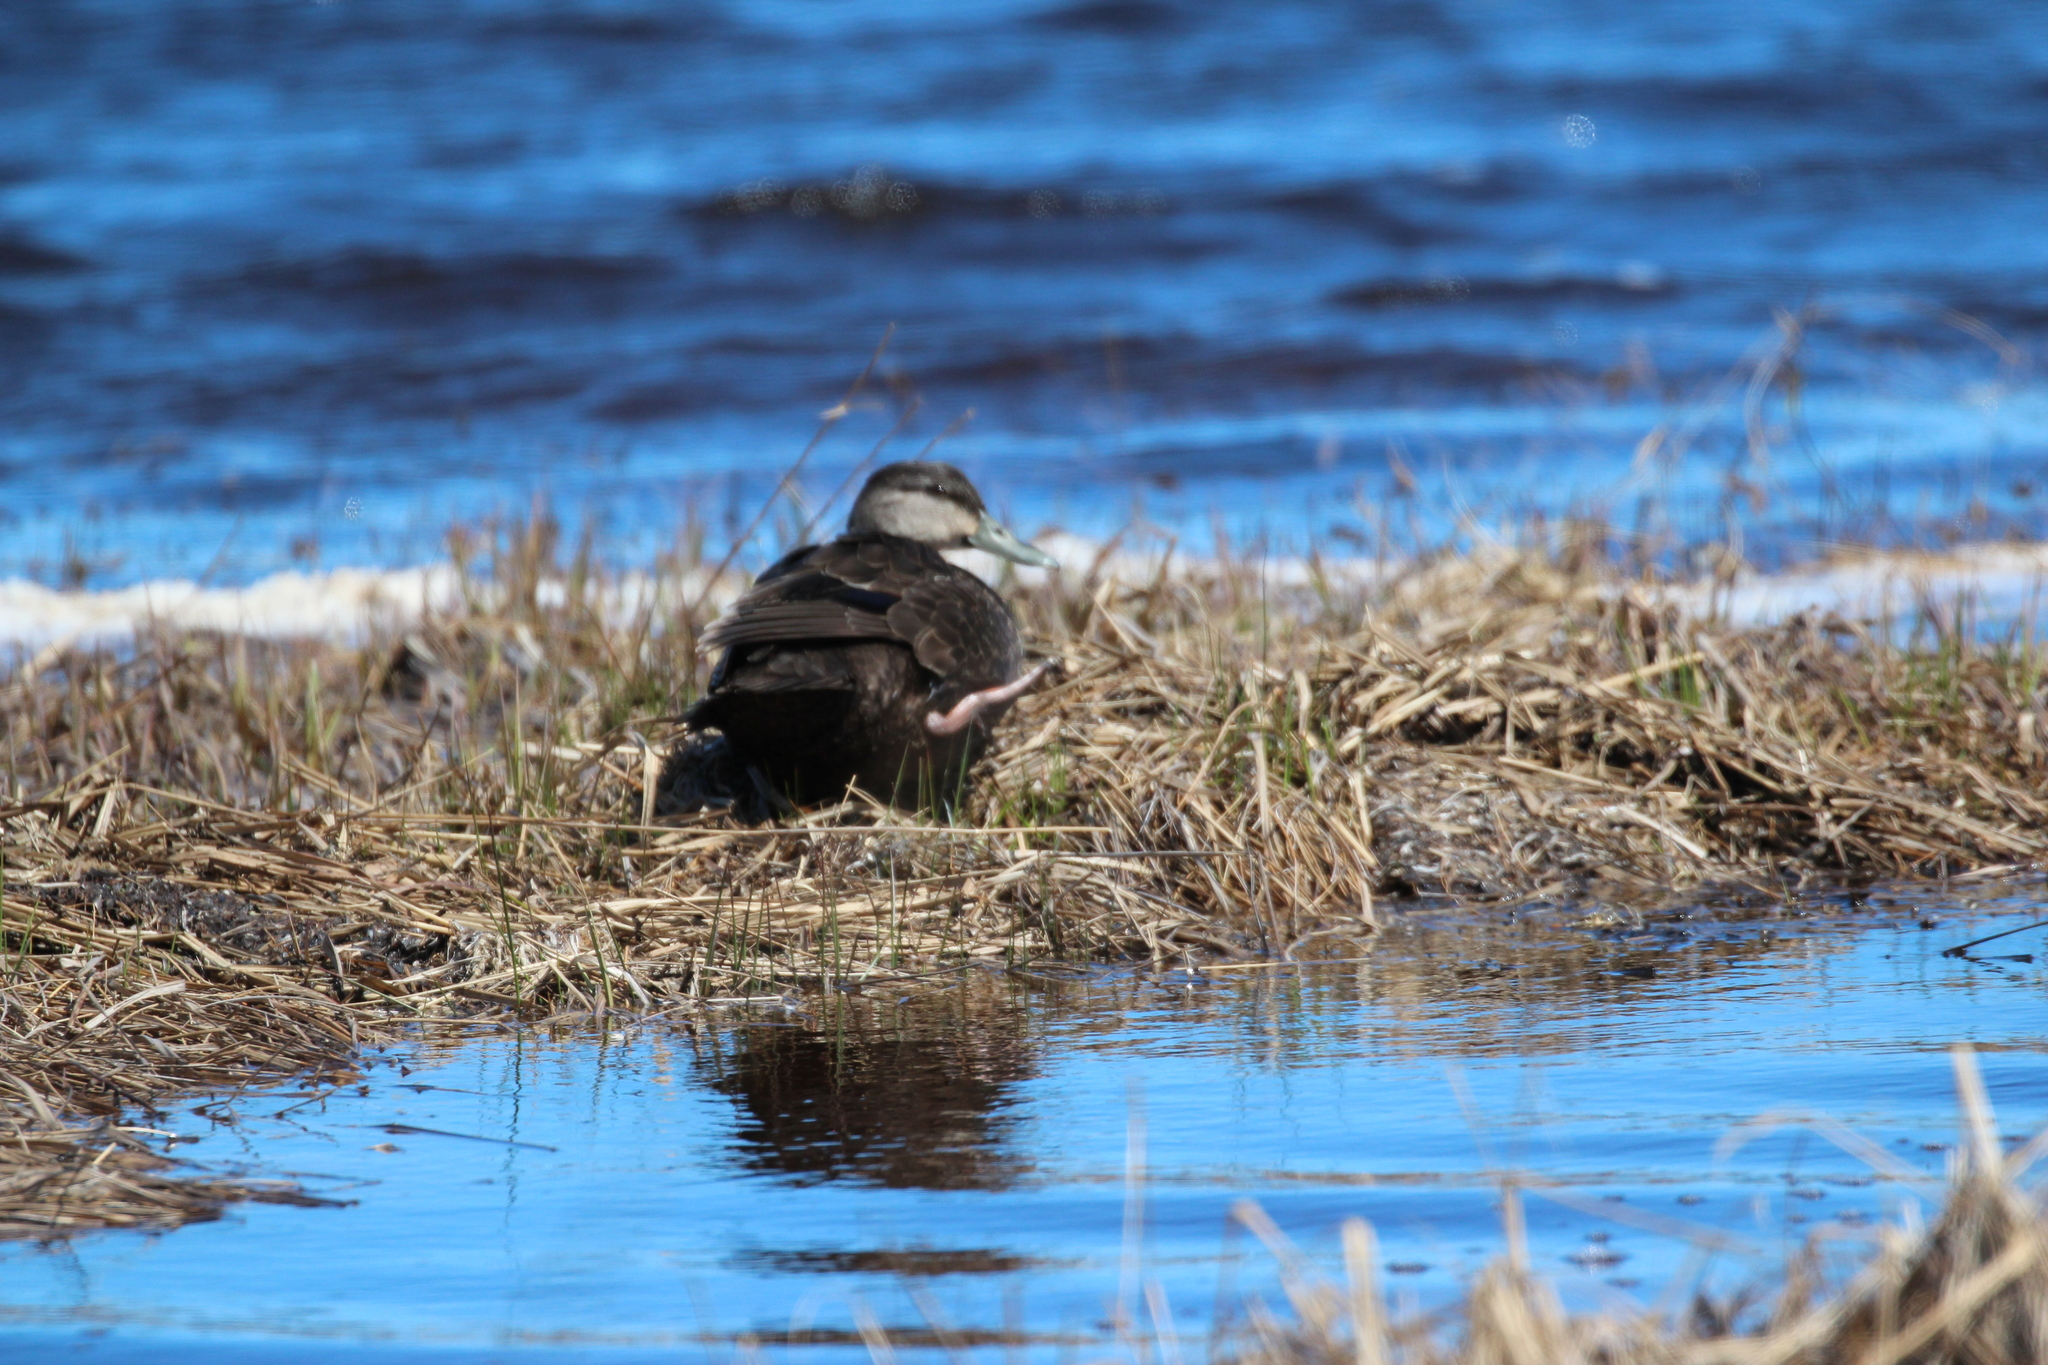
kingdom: Animalia
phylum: Chordata
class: Aves
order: Anseriformes
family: Anatidae
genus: Anas
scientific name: Anas rubripes
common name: American black duck
